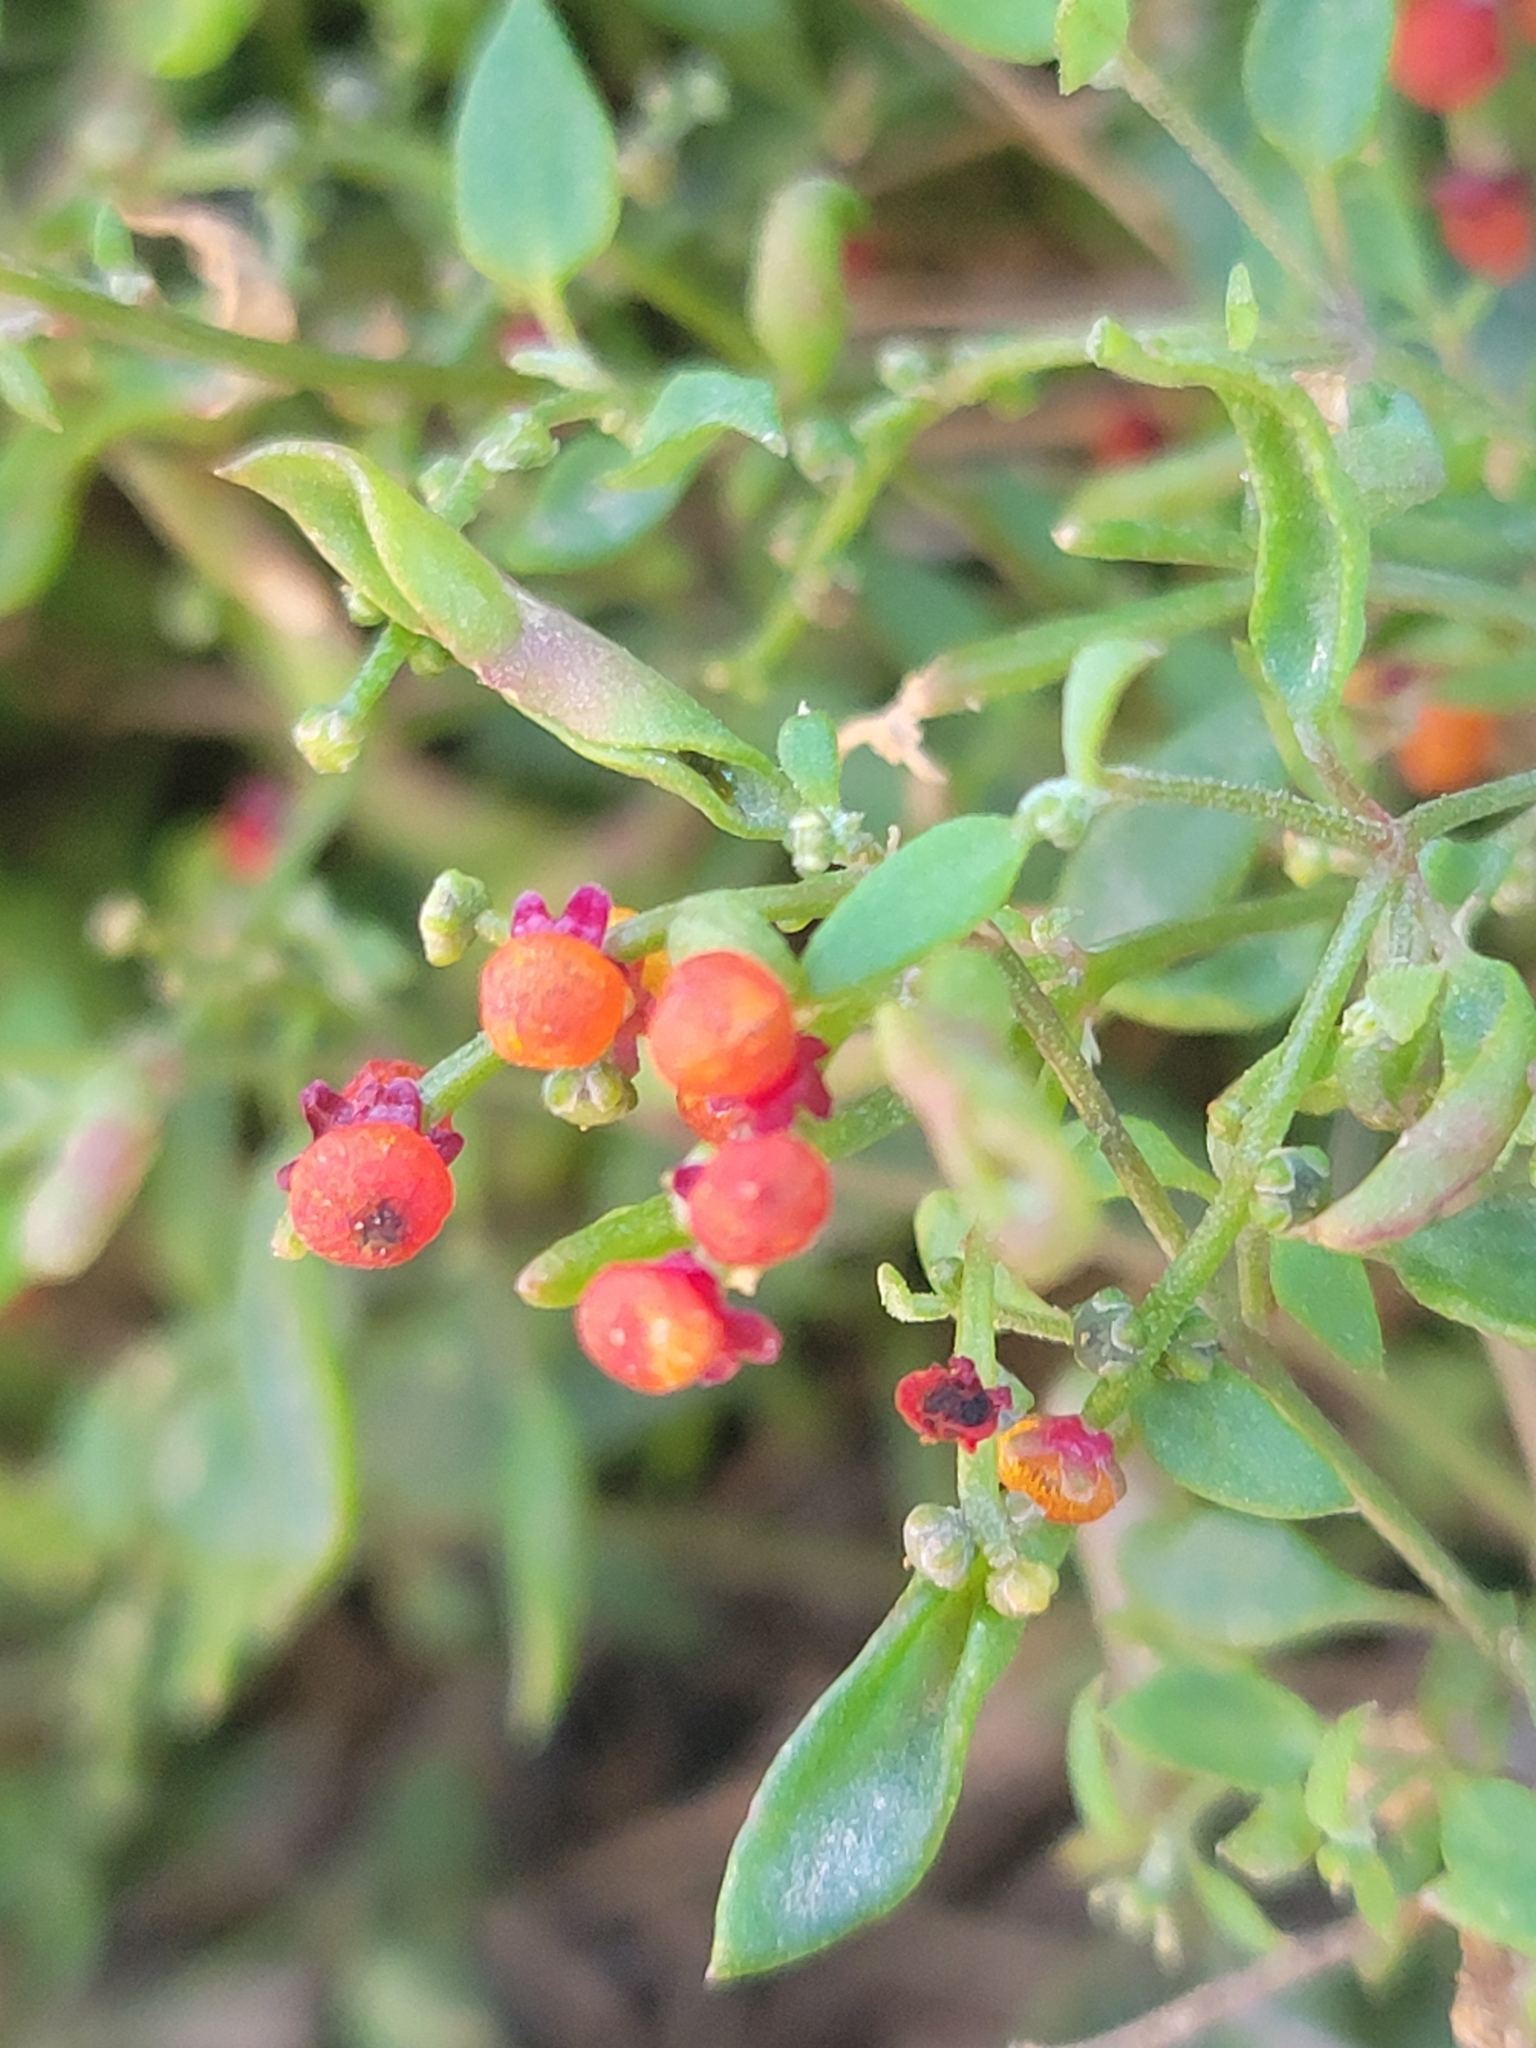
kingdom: Plantae
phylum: Tracheophyta
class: Magnoliopsida
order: Caryophyllales
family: Amaranthaceae
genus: Chenopodium
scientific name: Chenopodium nutans
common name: Climbing-saltbush
